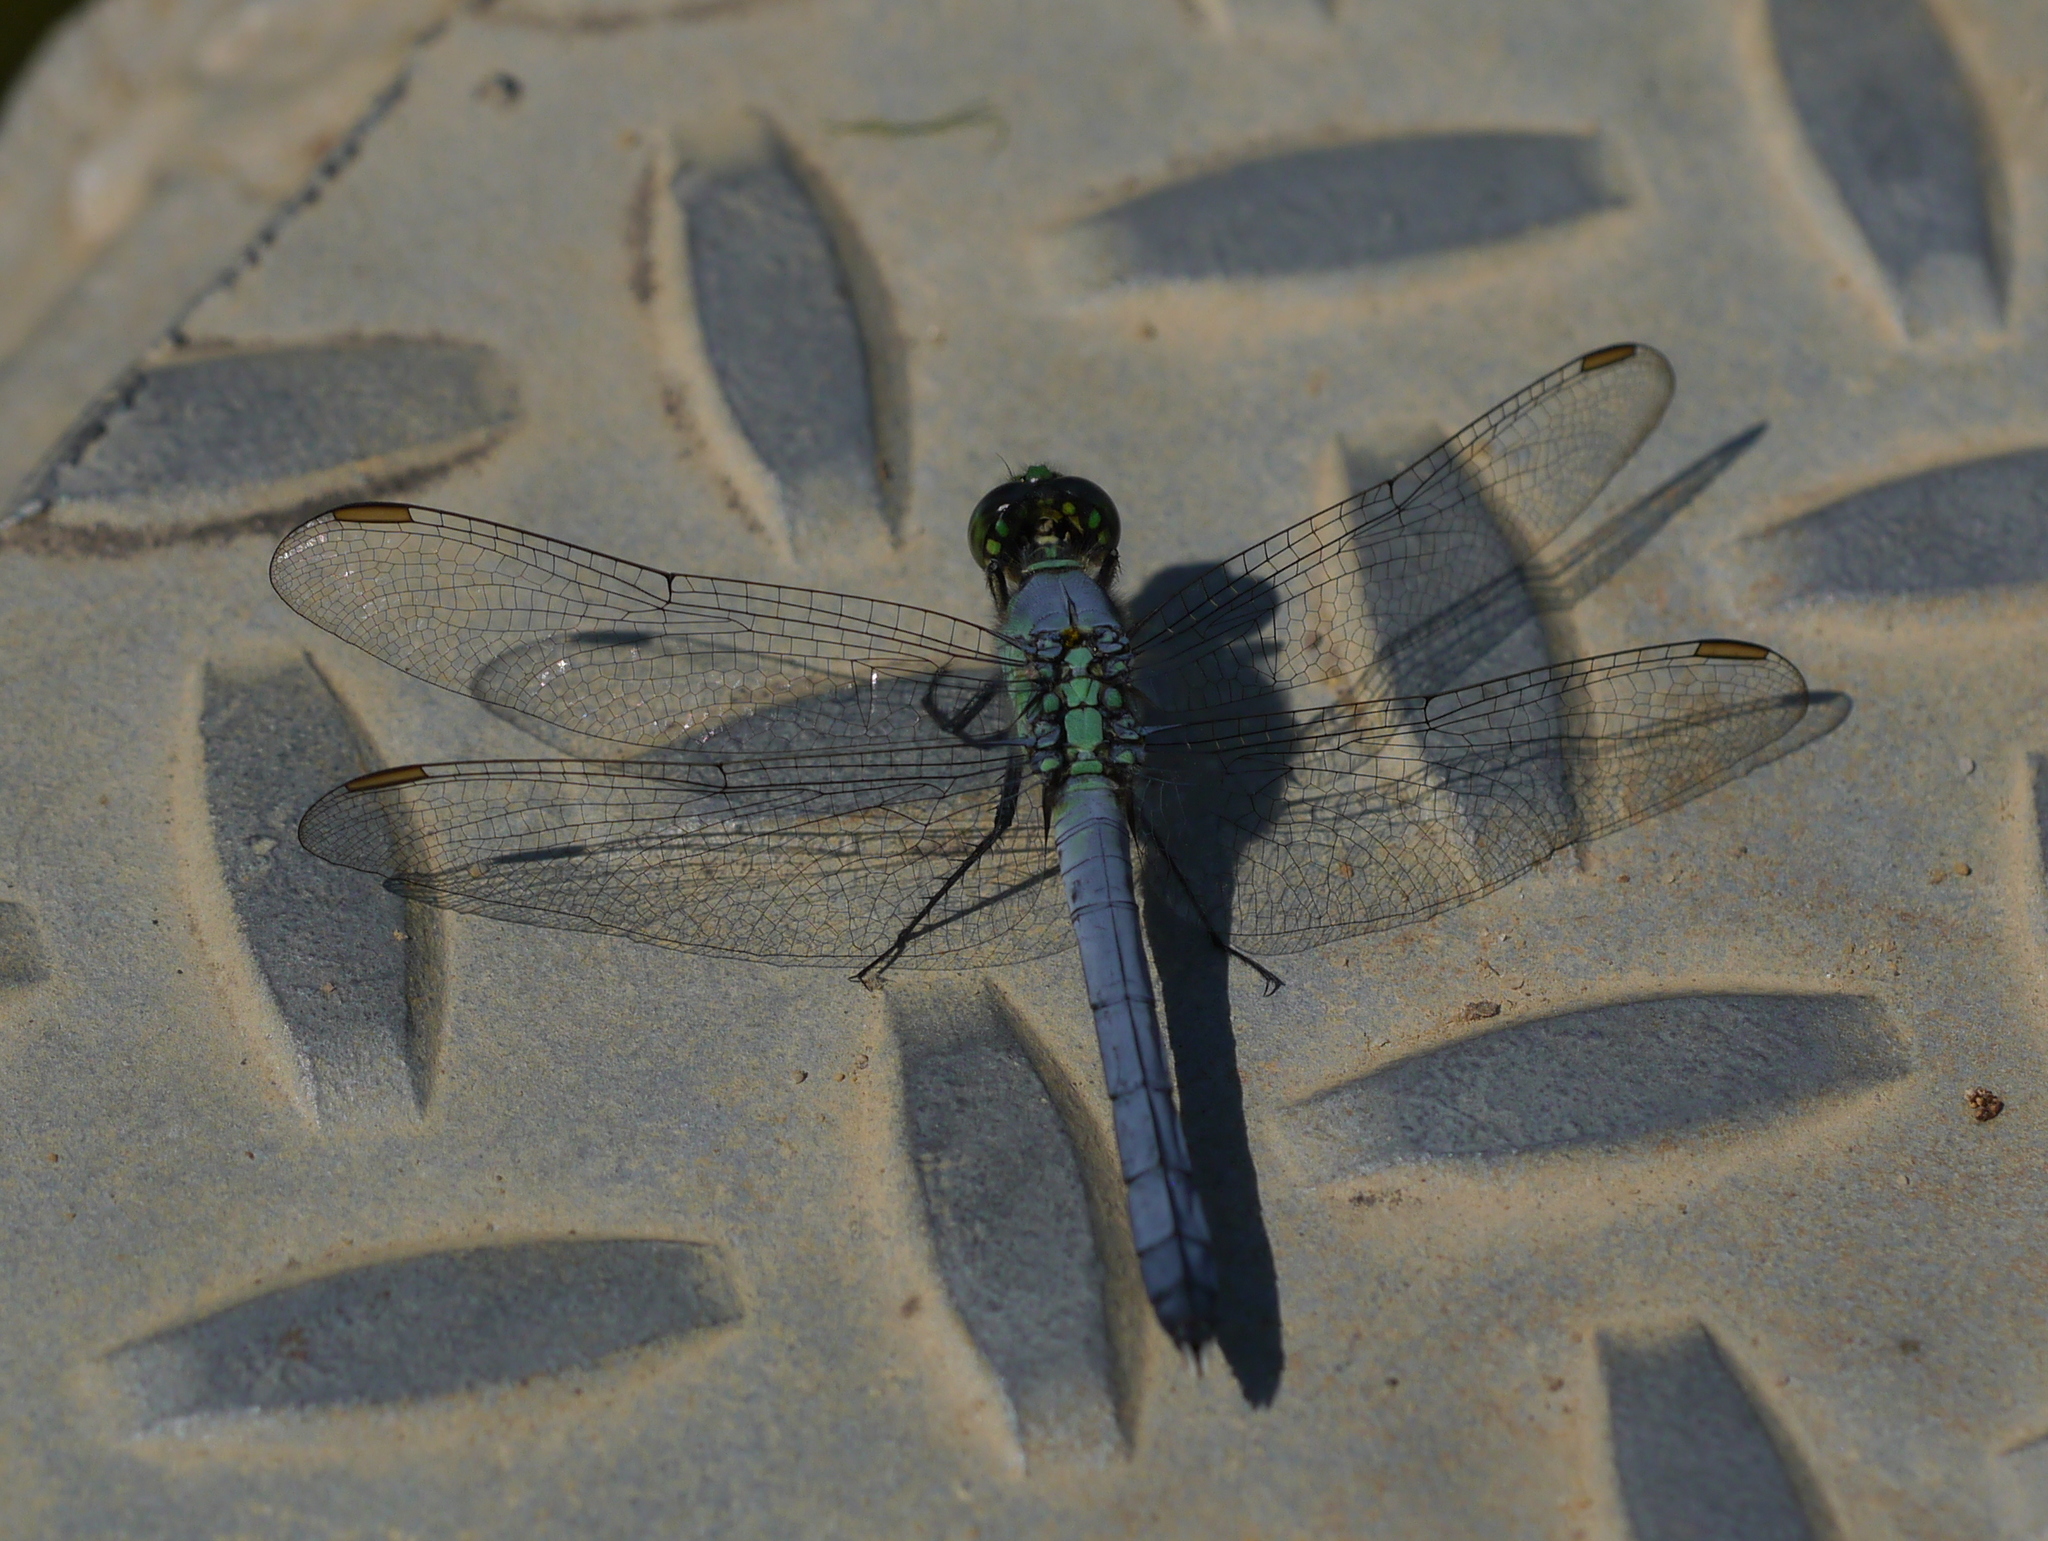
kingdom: Animalia
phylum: Arthropoda
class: Insecta
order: Odonata
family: Libellulidae
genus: Erythemis
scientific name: Erythemis simplicicollis
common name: Eastern pondhawk
